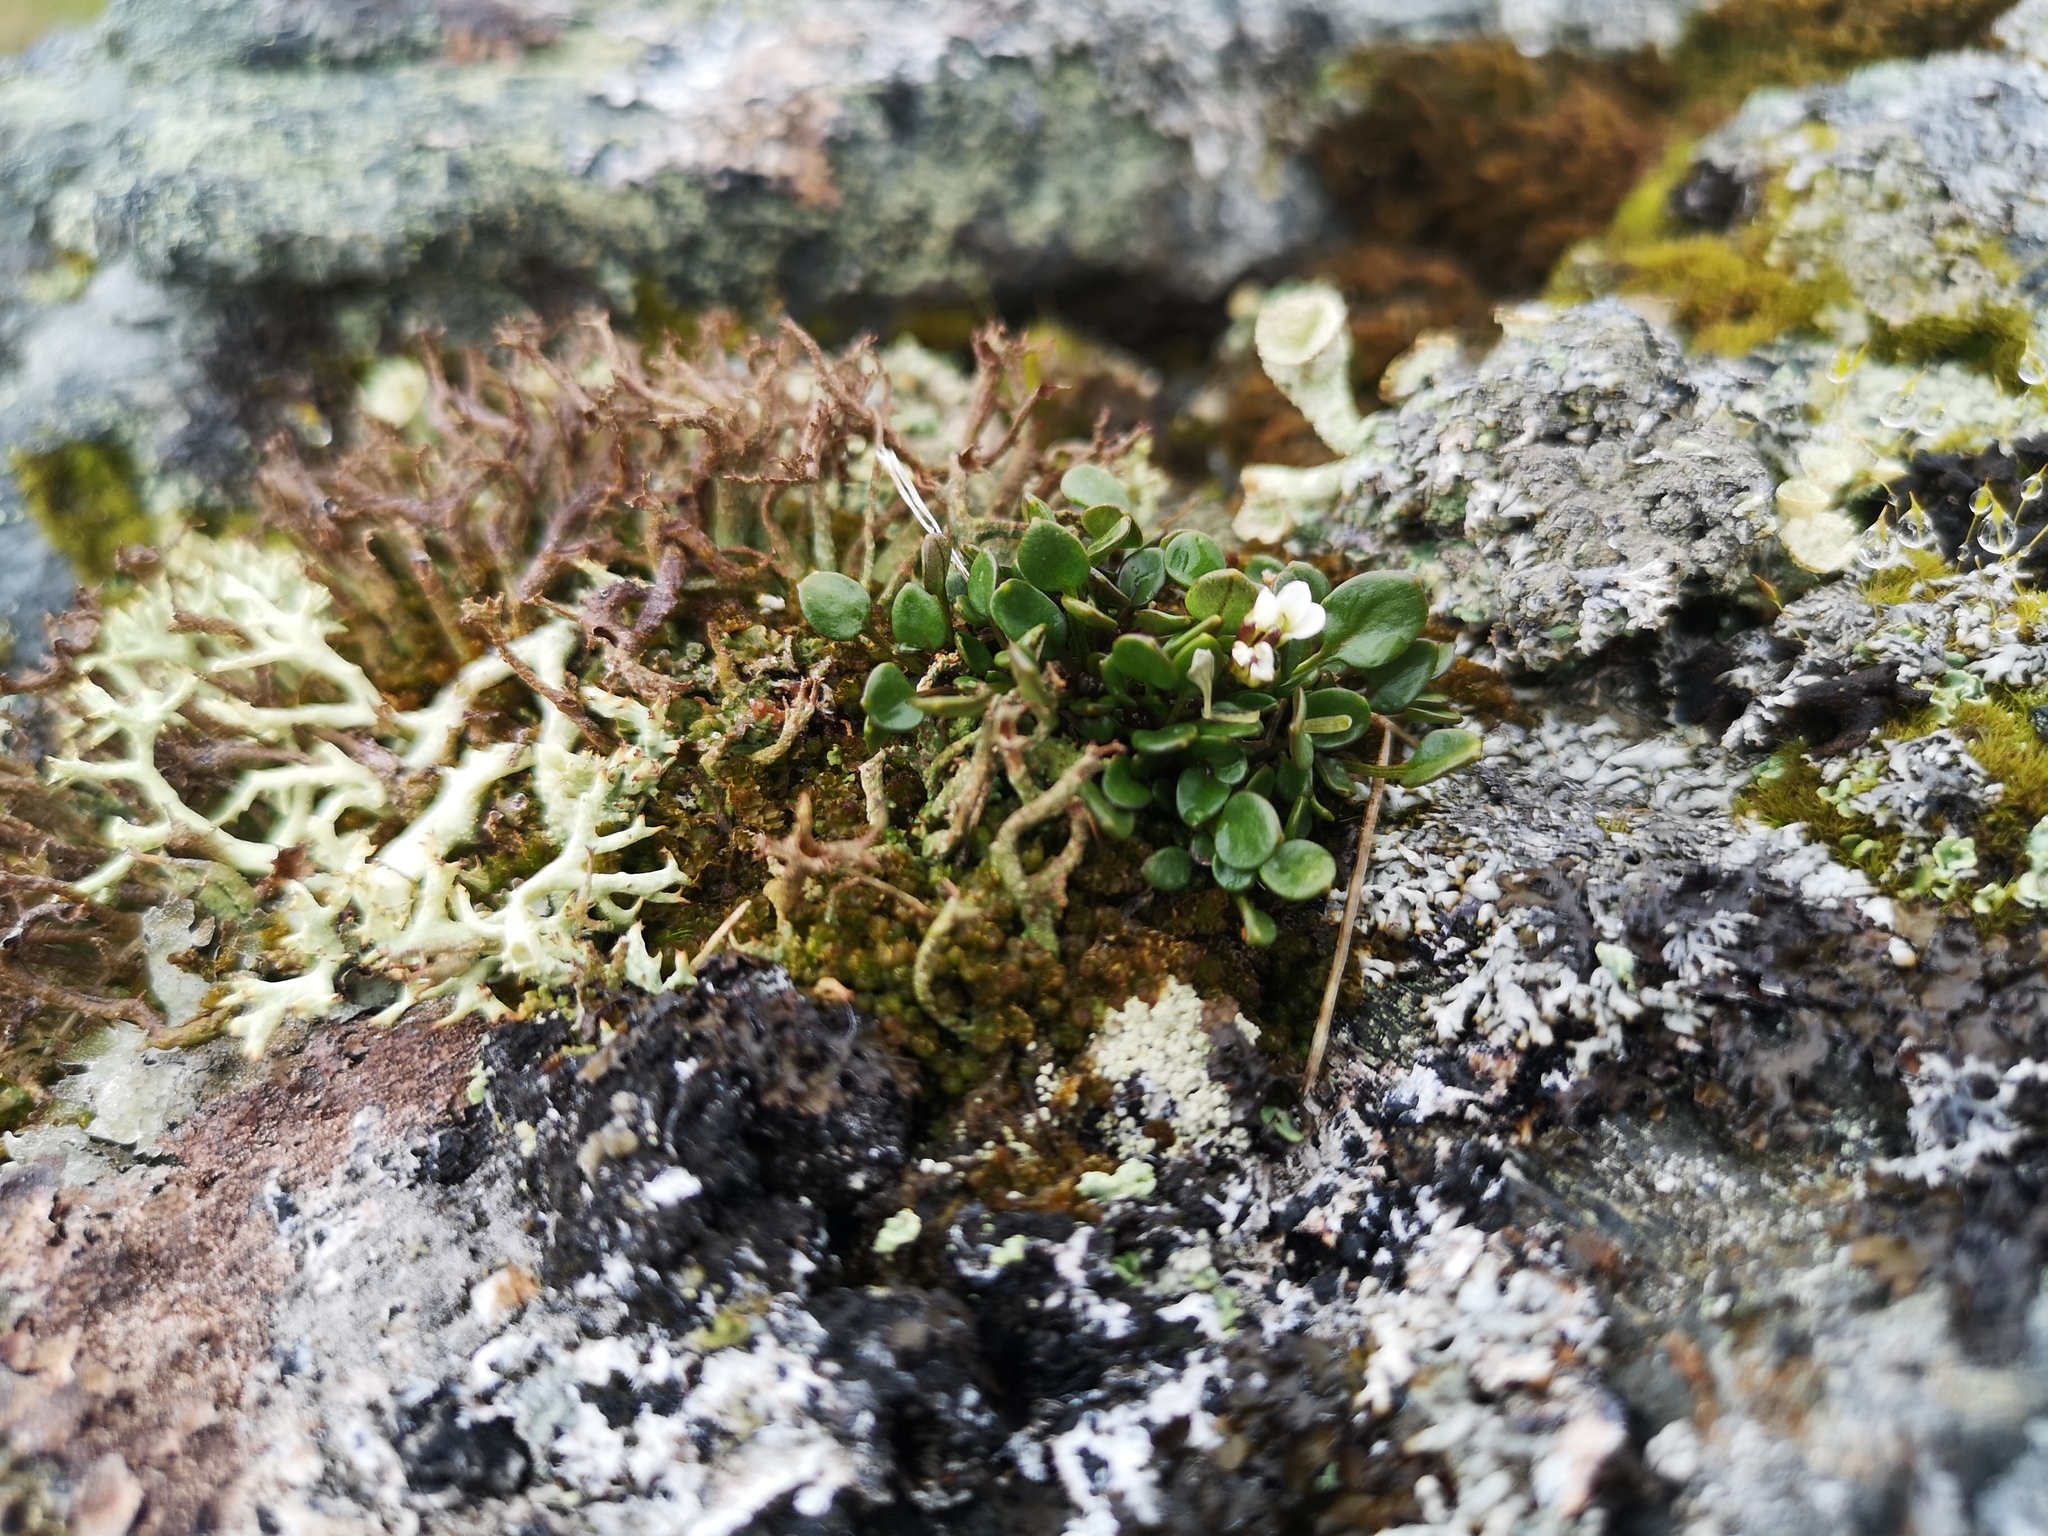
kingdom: Plantae
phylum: Tracheophyta
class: Magnoliopsida
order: Brassicales
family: Brassicaceae
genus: Cardamine
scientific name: Cardamine bellidifolia
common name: Alpine bittercress
